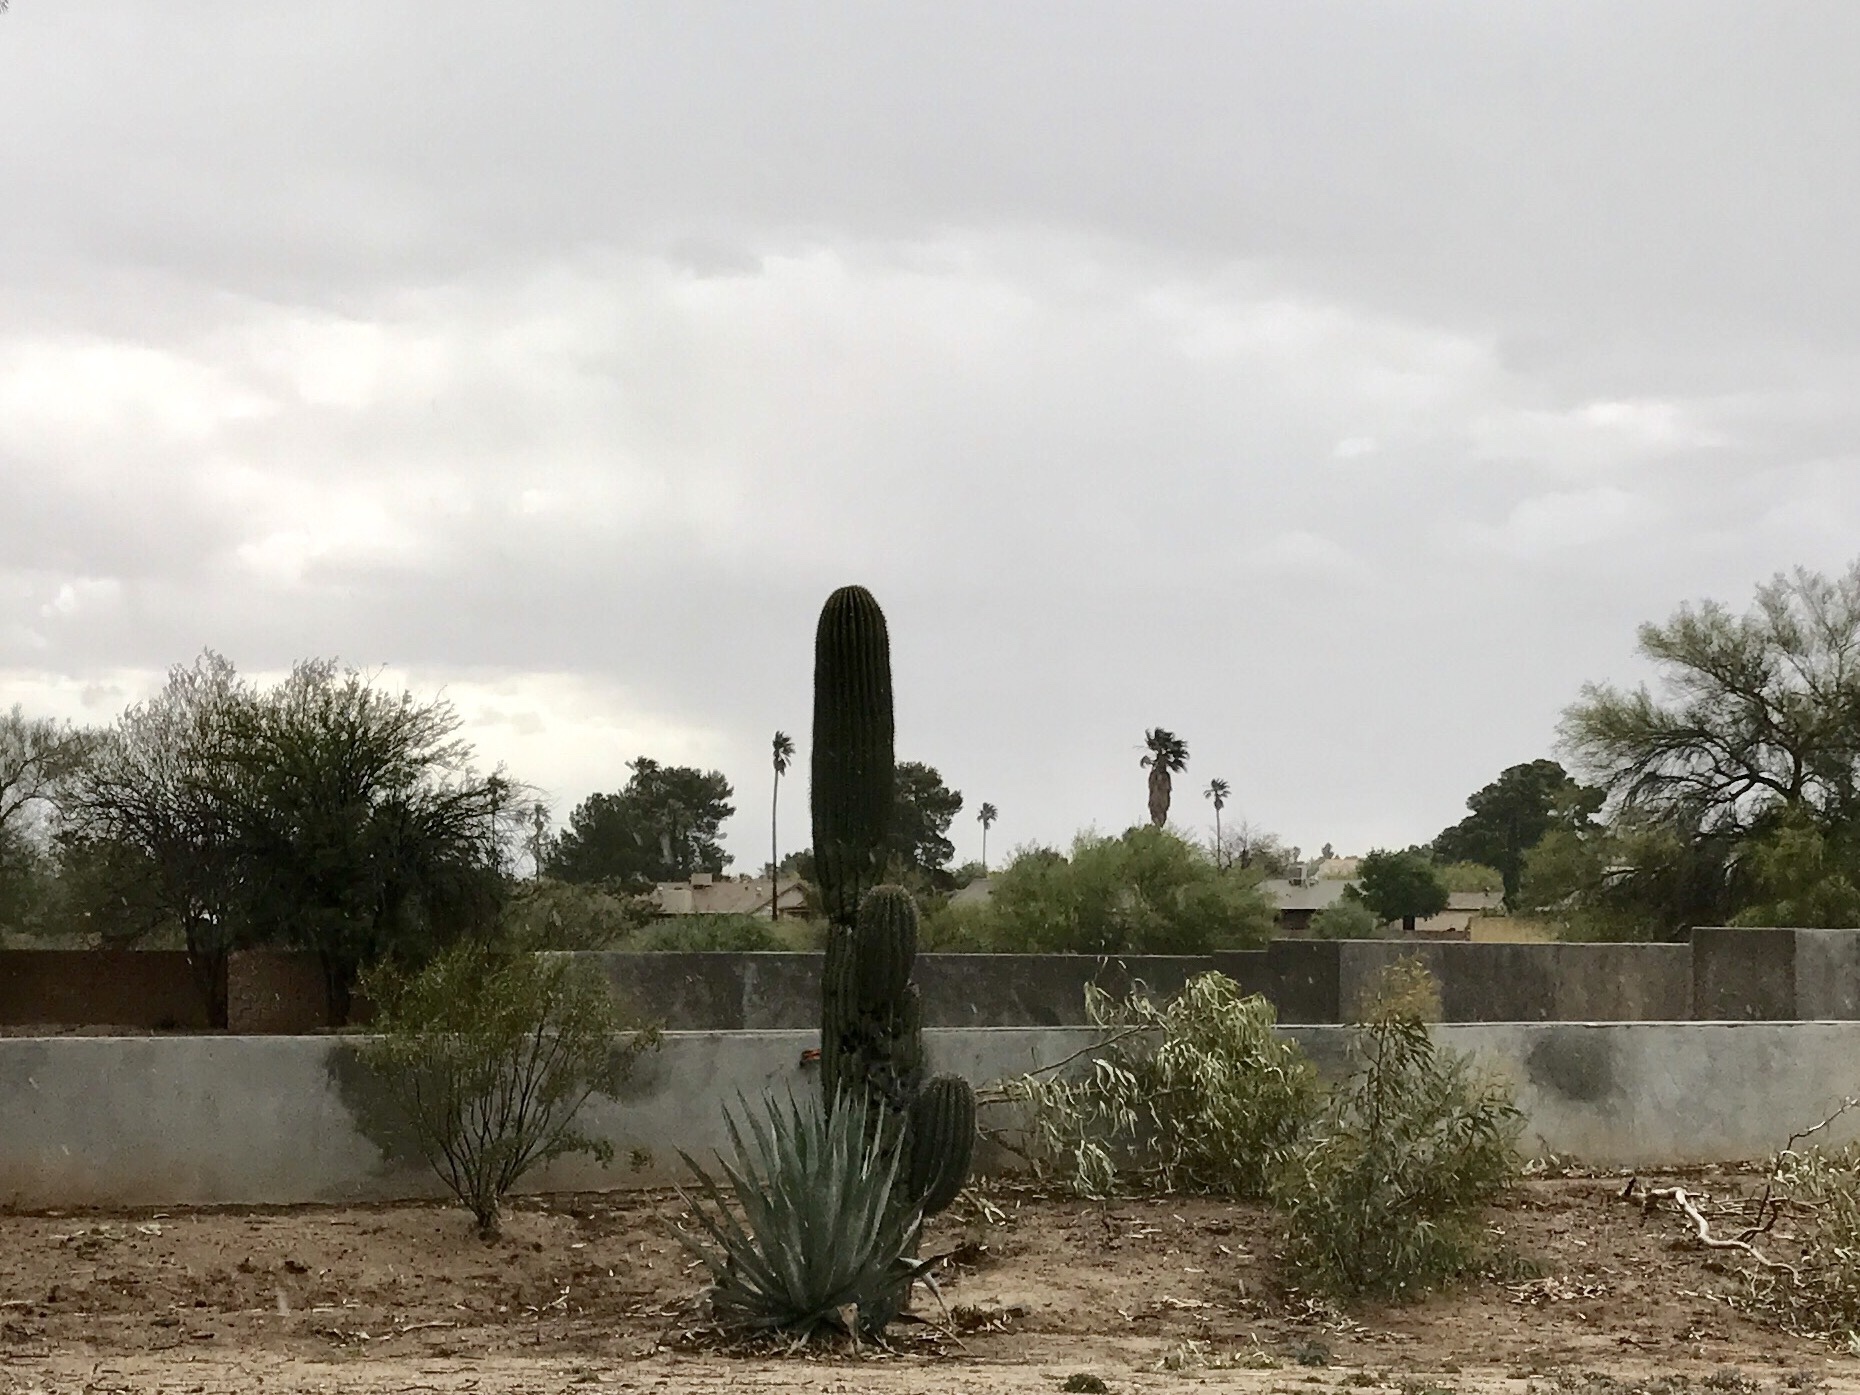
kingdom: Plantae
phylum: Tracheophyta
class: Magnoliopsida
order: Caryophyllales
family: Cactaceae
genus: Carnegiea
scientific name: Carnegiea gigantea
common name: Saguaro
